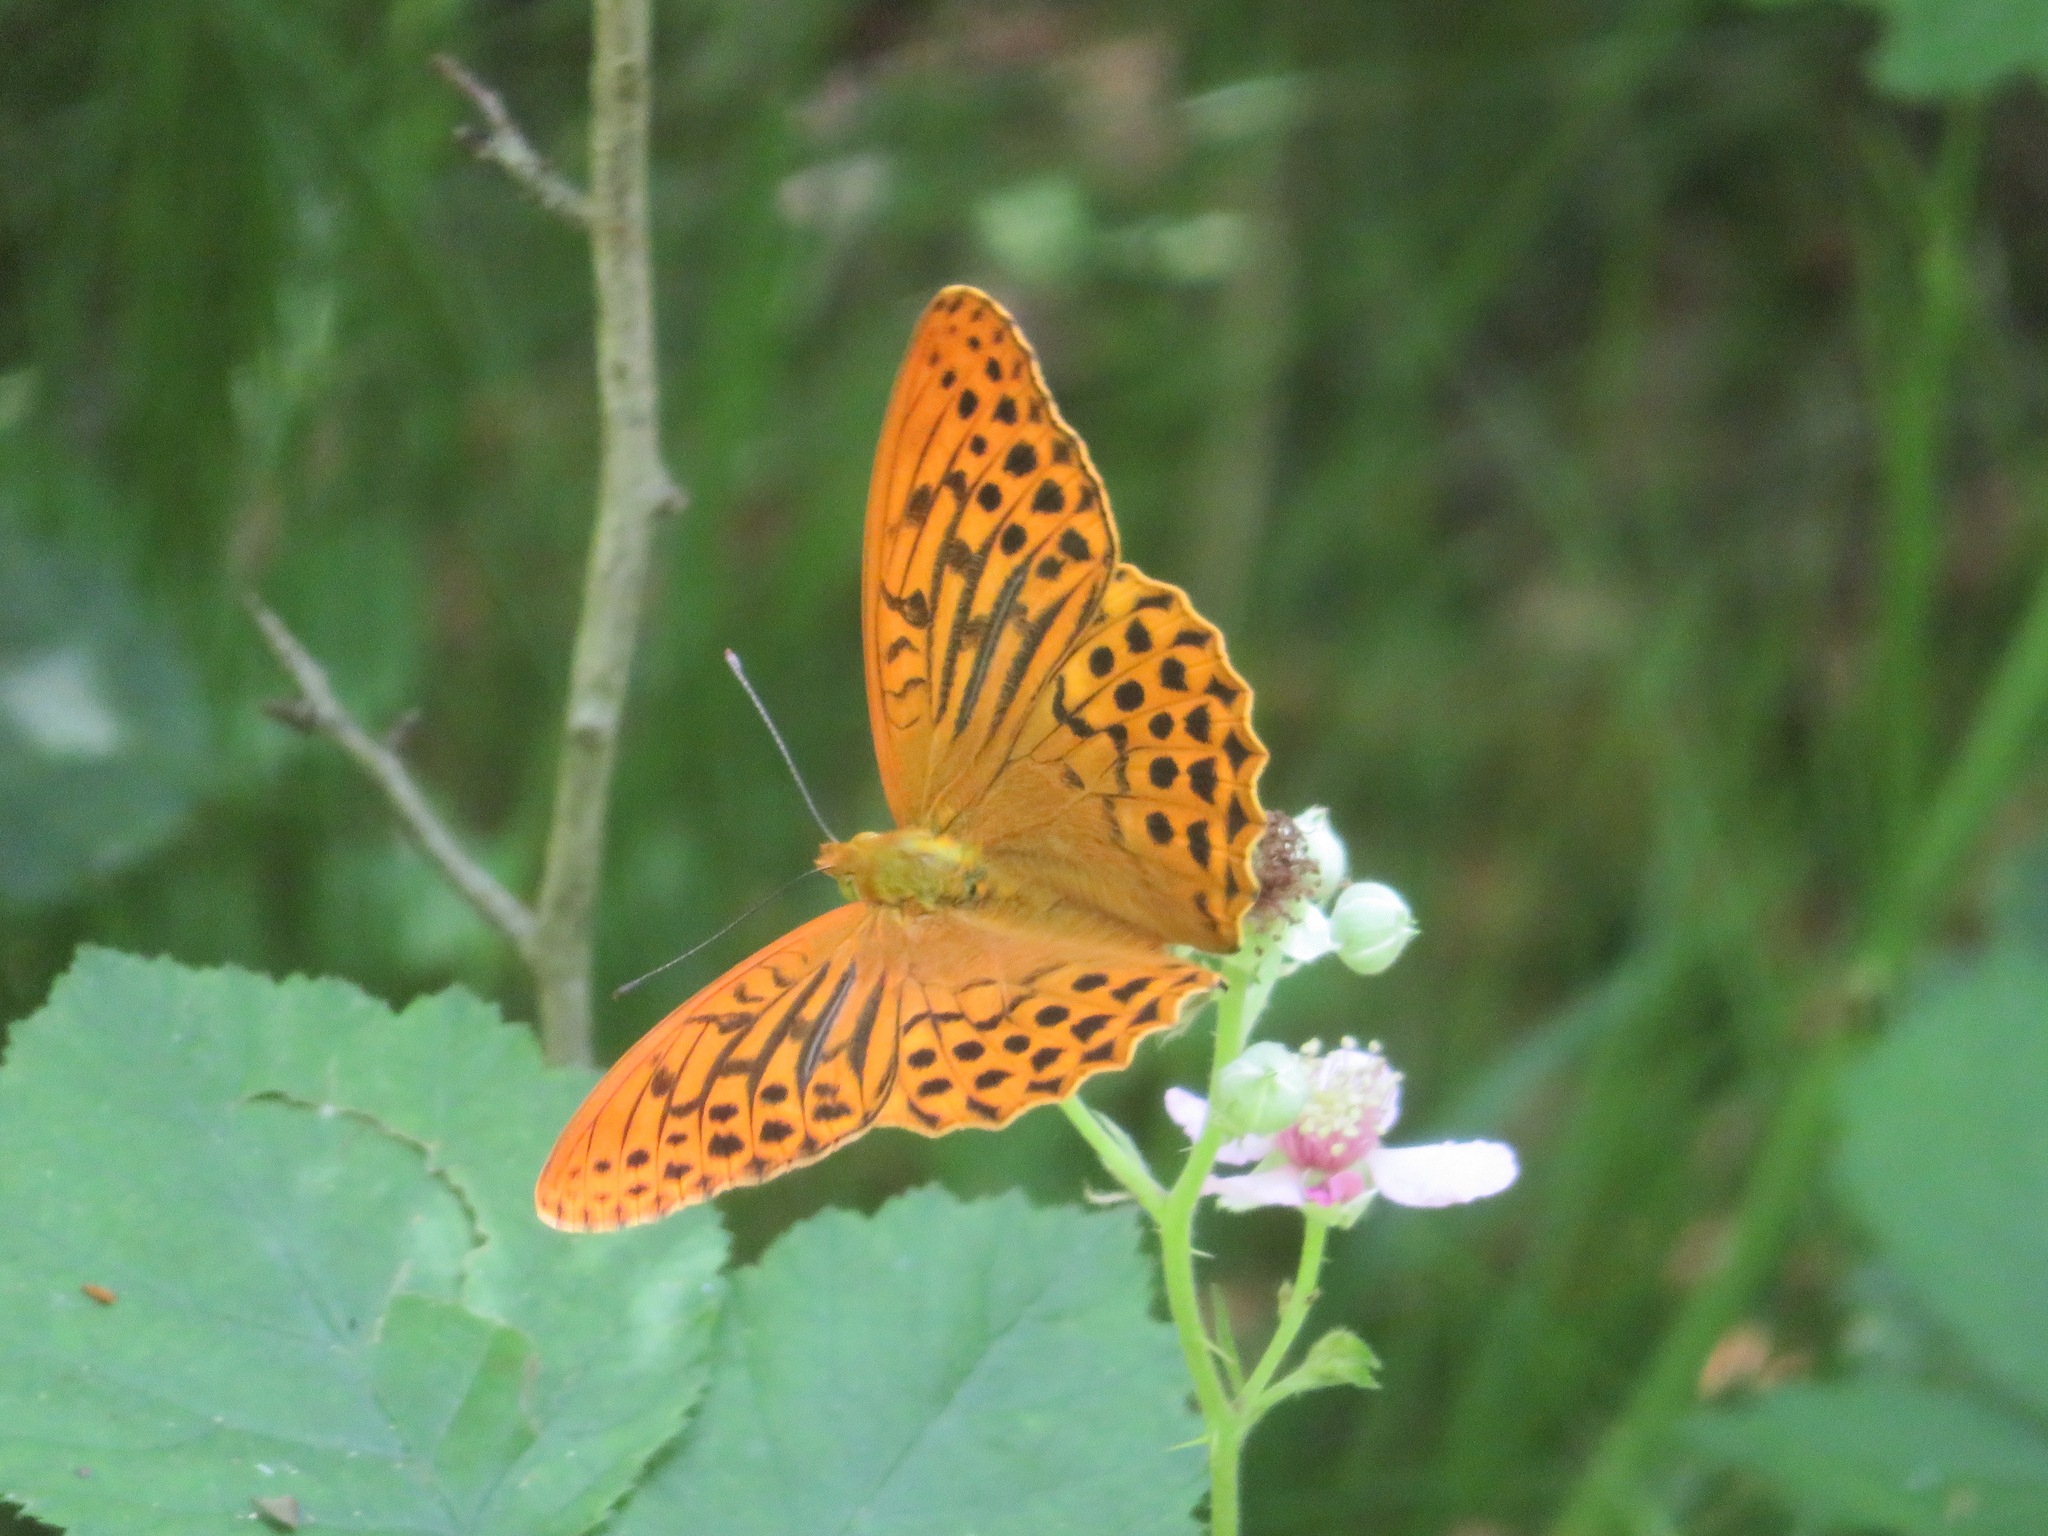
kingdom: Animalia
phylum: Arthropoda
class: Insecta
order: Lepidoptera
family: Nymphalidae
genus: Argynnis
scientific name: Argynnis paphia
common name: Silver-washed fritillary
